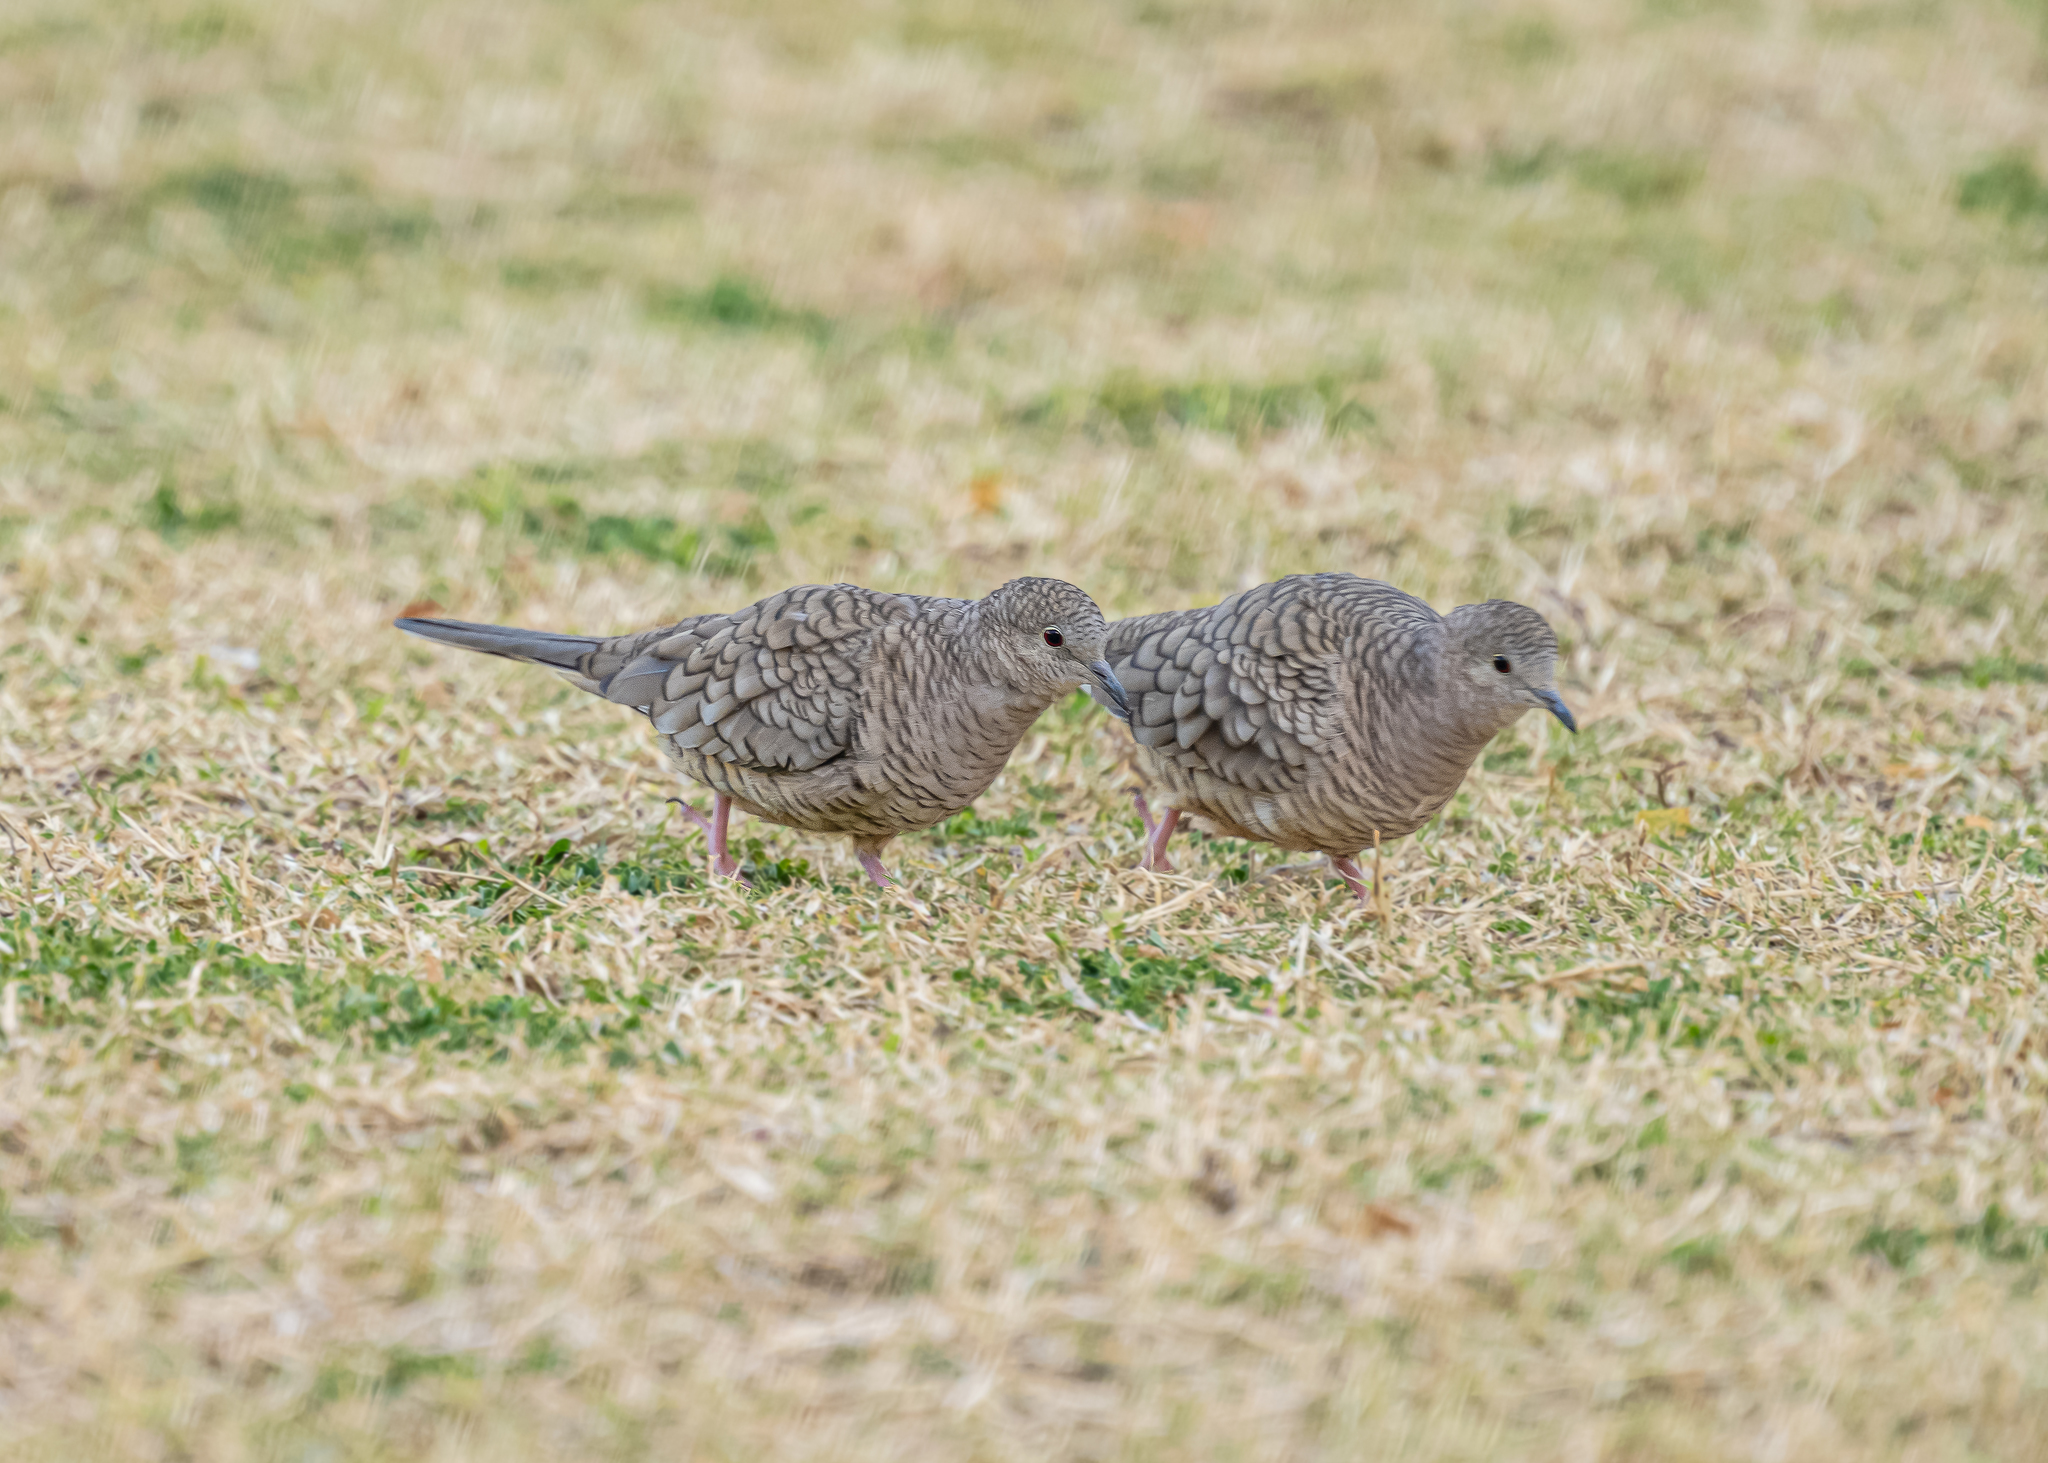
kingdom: Animalia
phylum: Chordata
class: Aves
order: Columbiformes
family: Columbidae
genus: Columbina
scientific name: Columbina inca
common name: Inca dove
